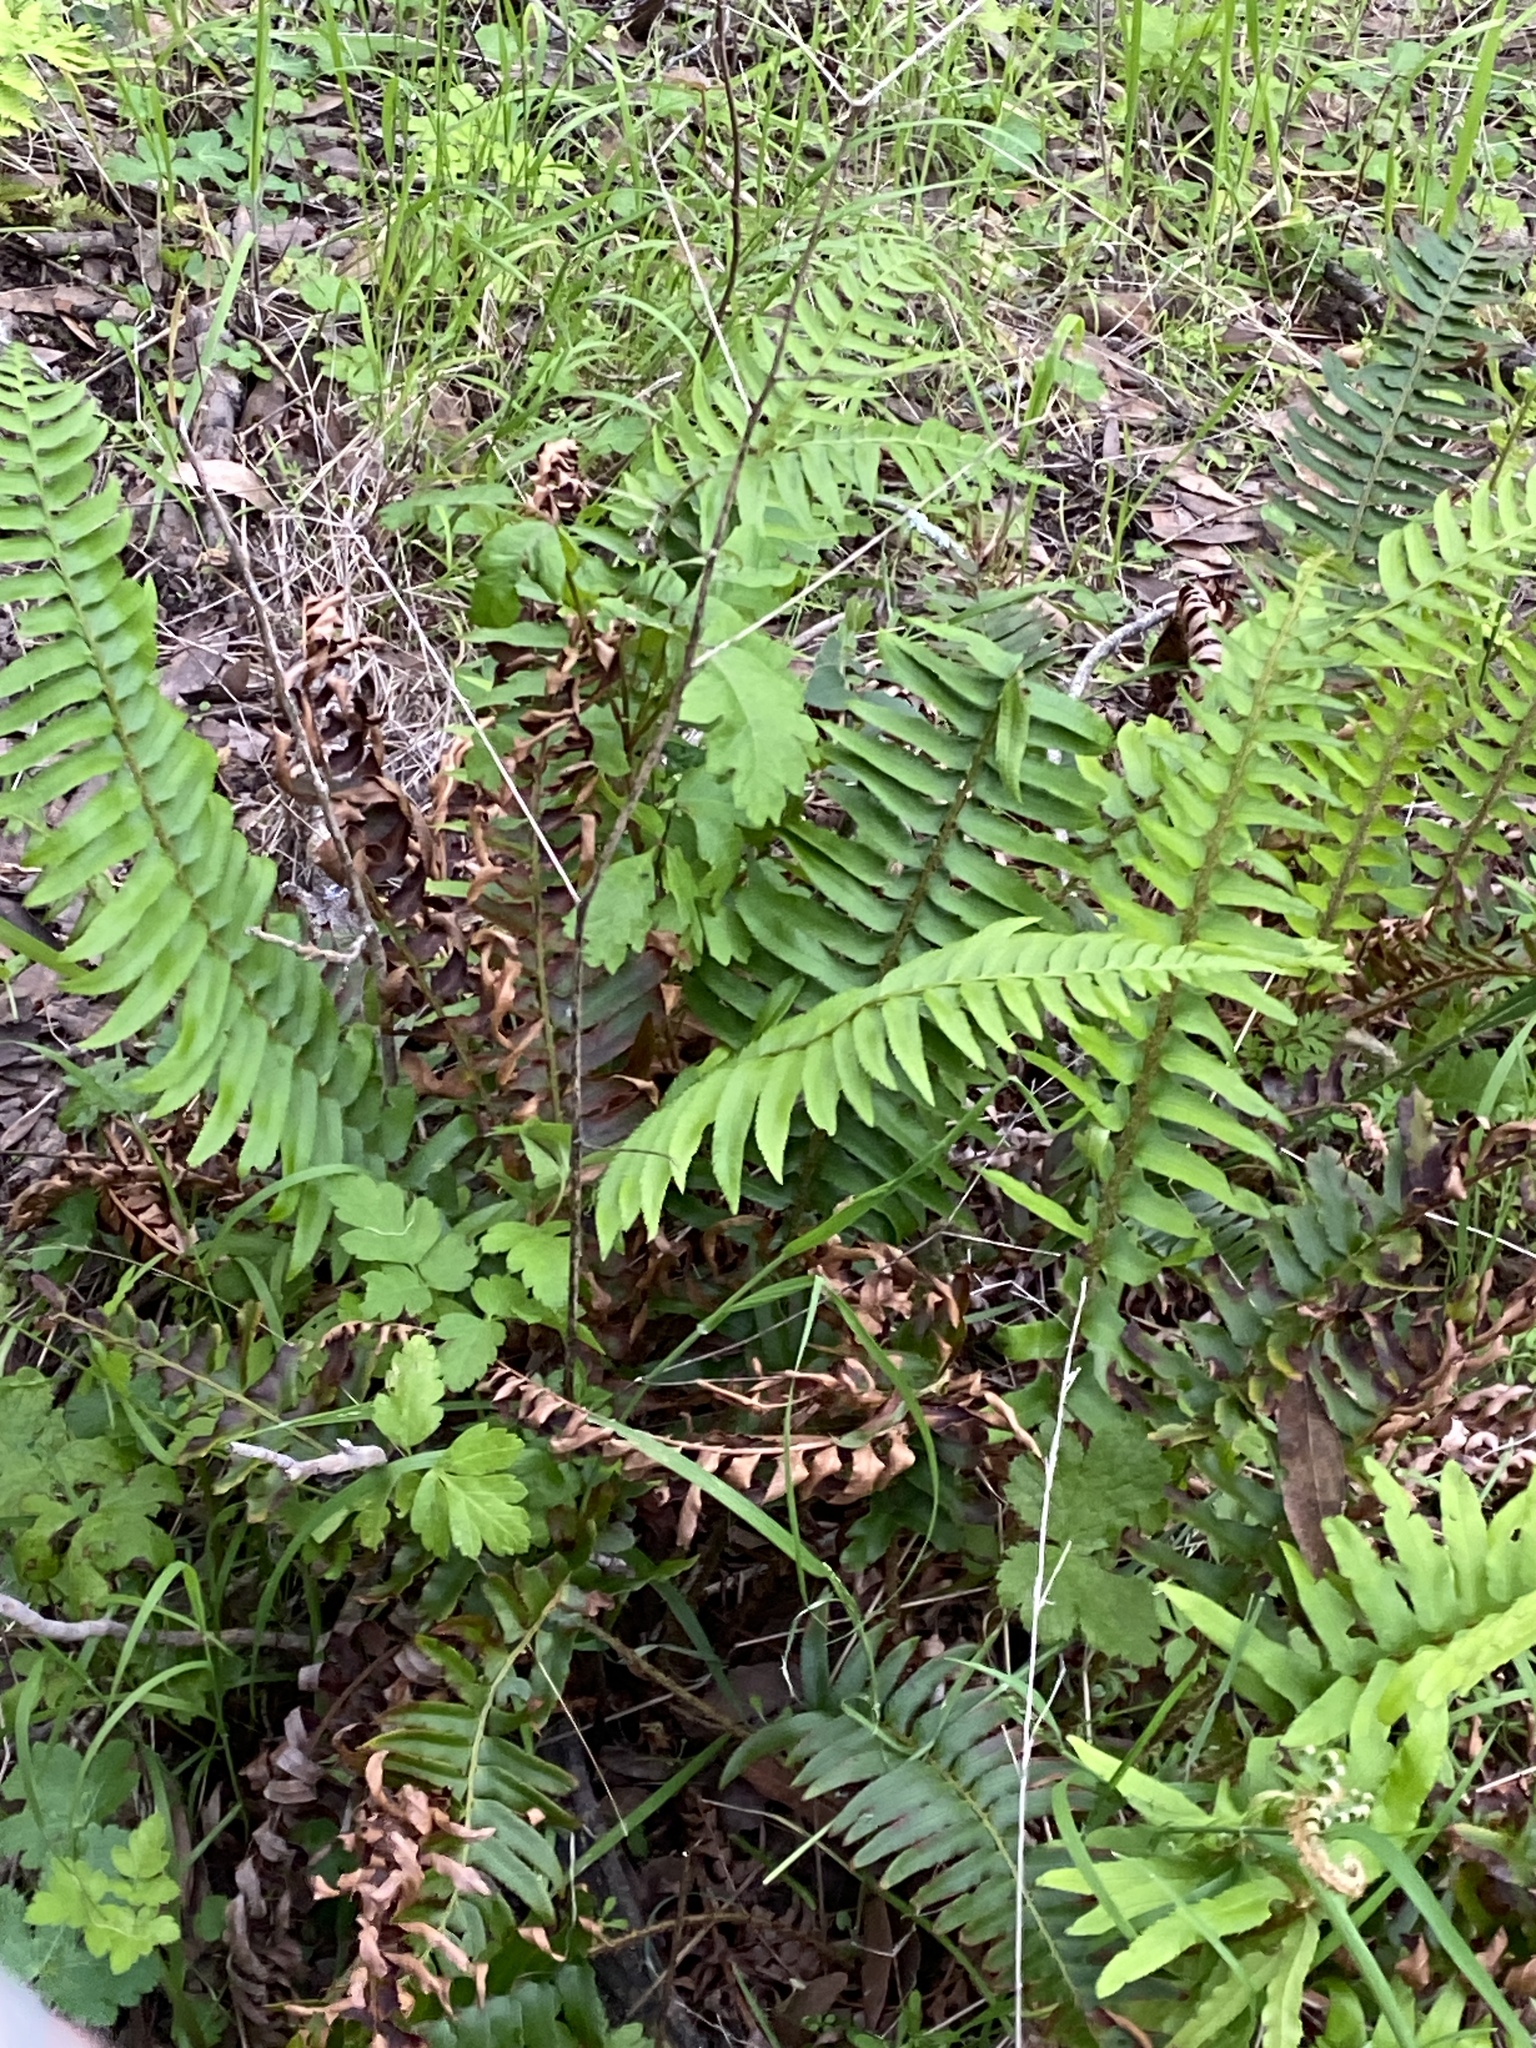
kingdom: Plantae
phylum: Tracheophyta
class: Polypodiopsida
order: Polypodiales
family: Dryopteridaceae
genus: Polystichum
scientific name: Polystichum munitum
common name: Western sword-fern
